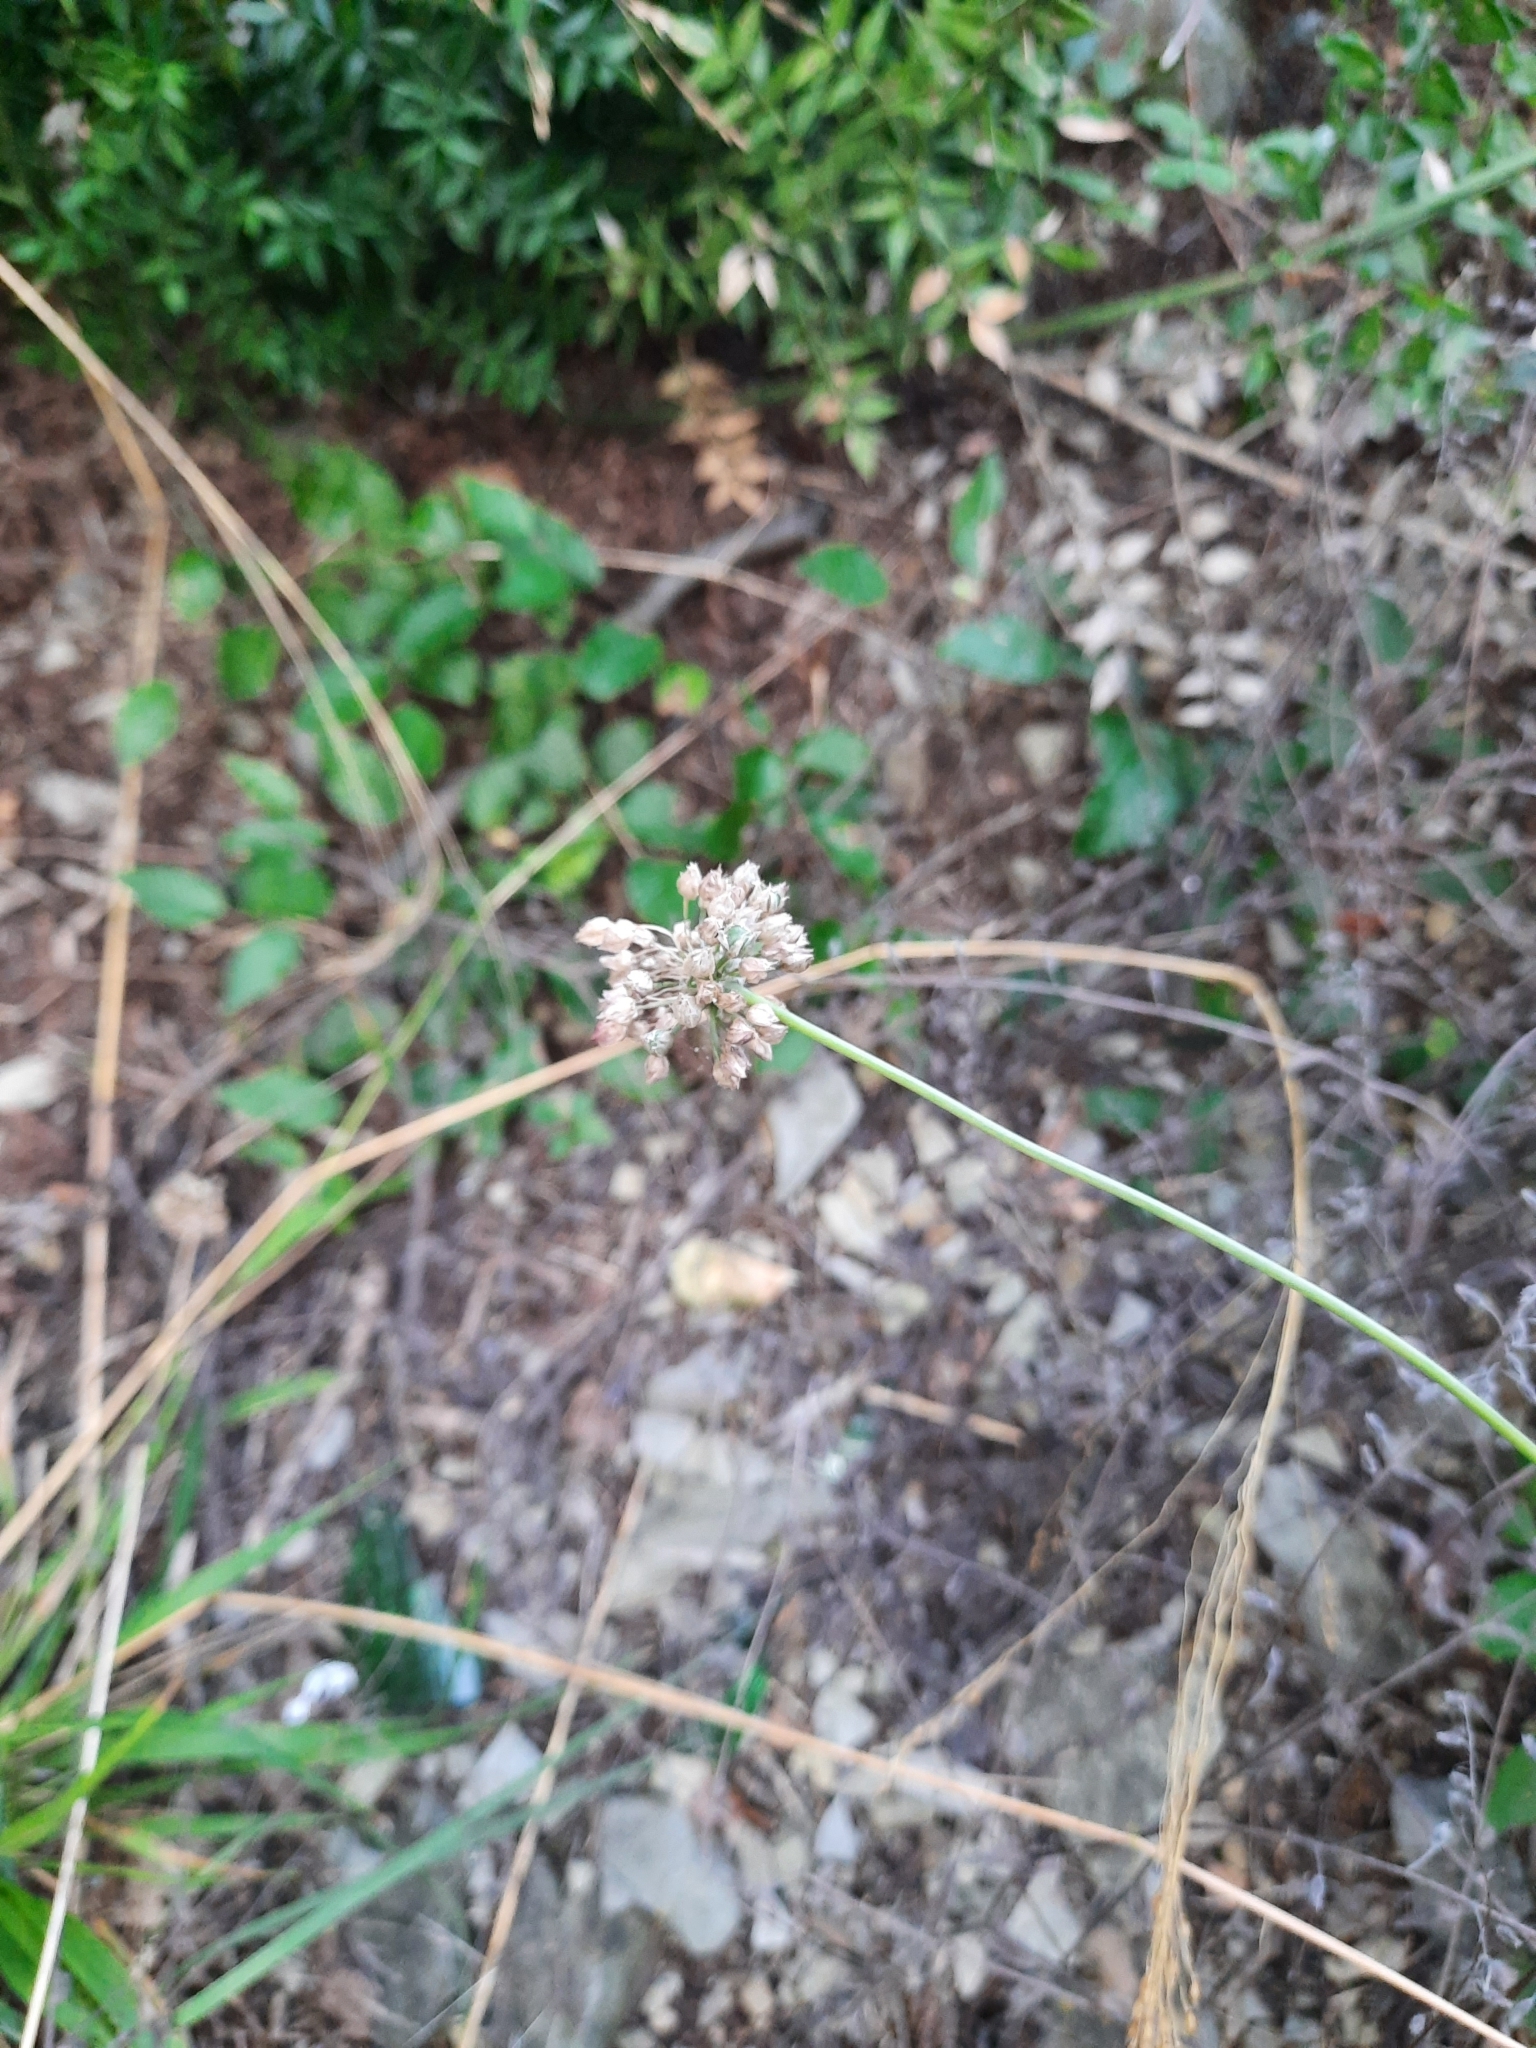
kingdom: Plantae
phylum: Tracheophyta
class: Liliopsida
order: Asparagales
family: Amaryllidaceae
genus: Allium
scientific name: Allium rotundum
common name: Sand leek
